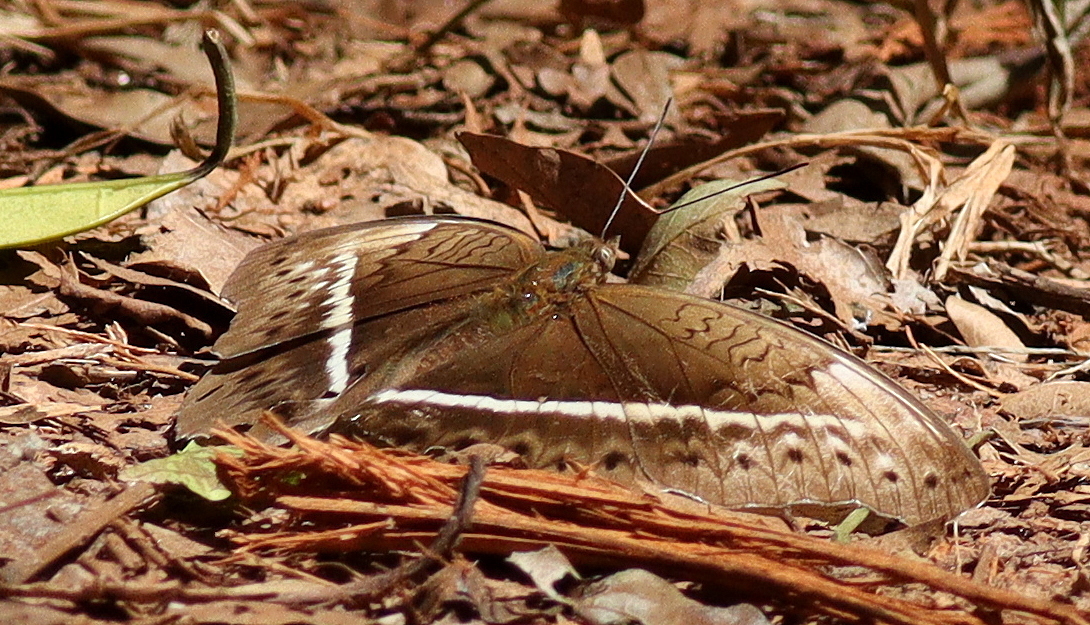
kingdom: Animalia
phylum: Arthropoda
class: Insecta
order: Lepidoptera
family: Nymphalidae
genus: Cymothoe
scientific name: Cymothoe egesta
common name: Common yellow glider
